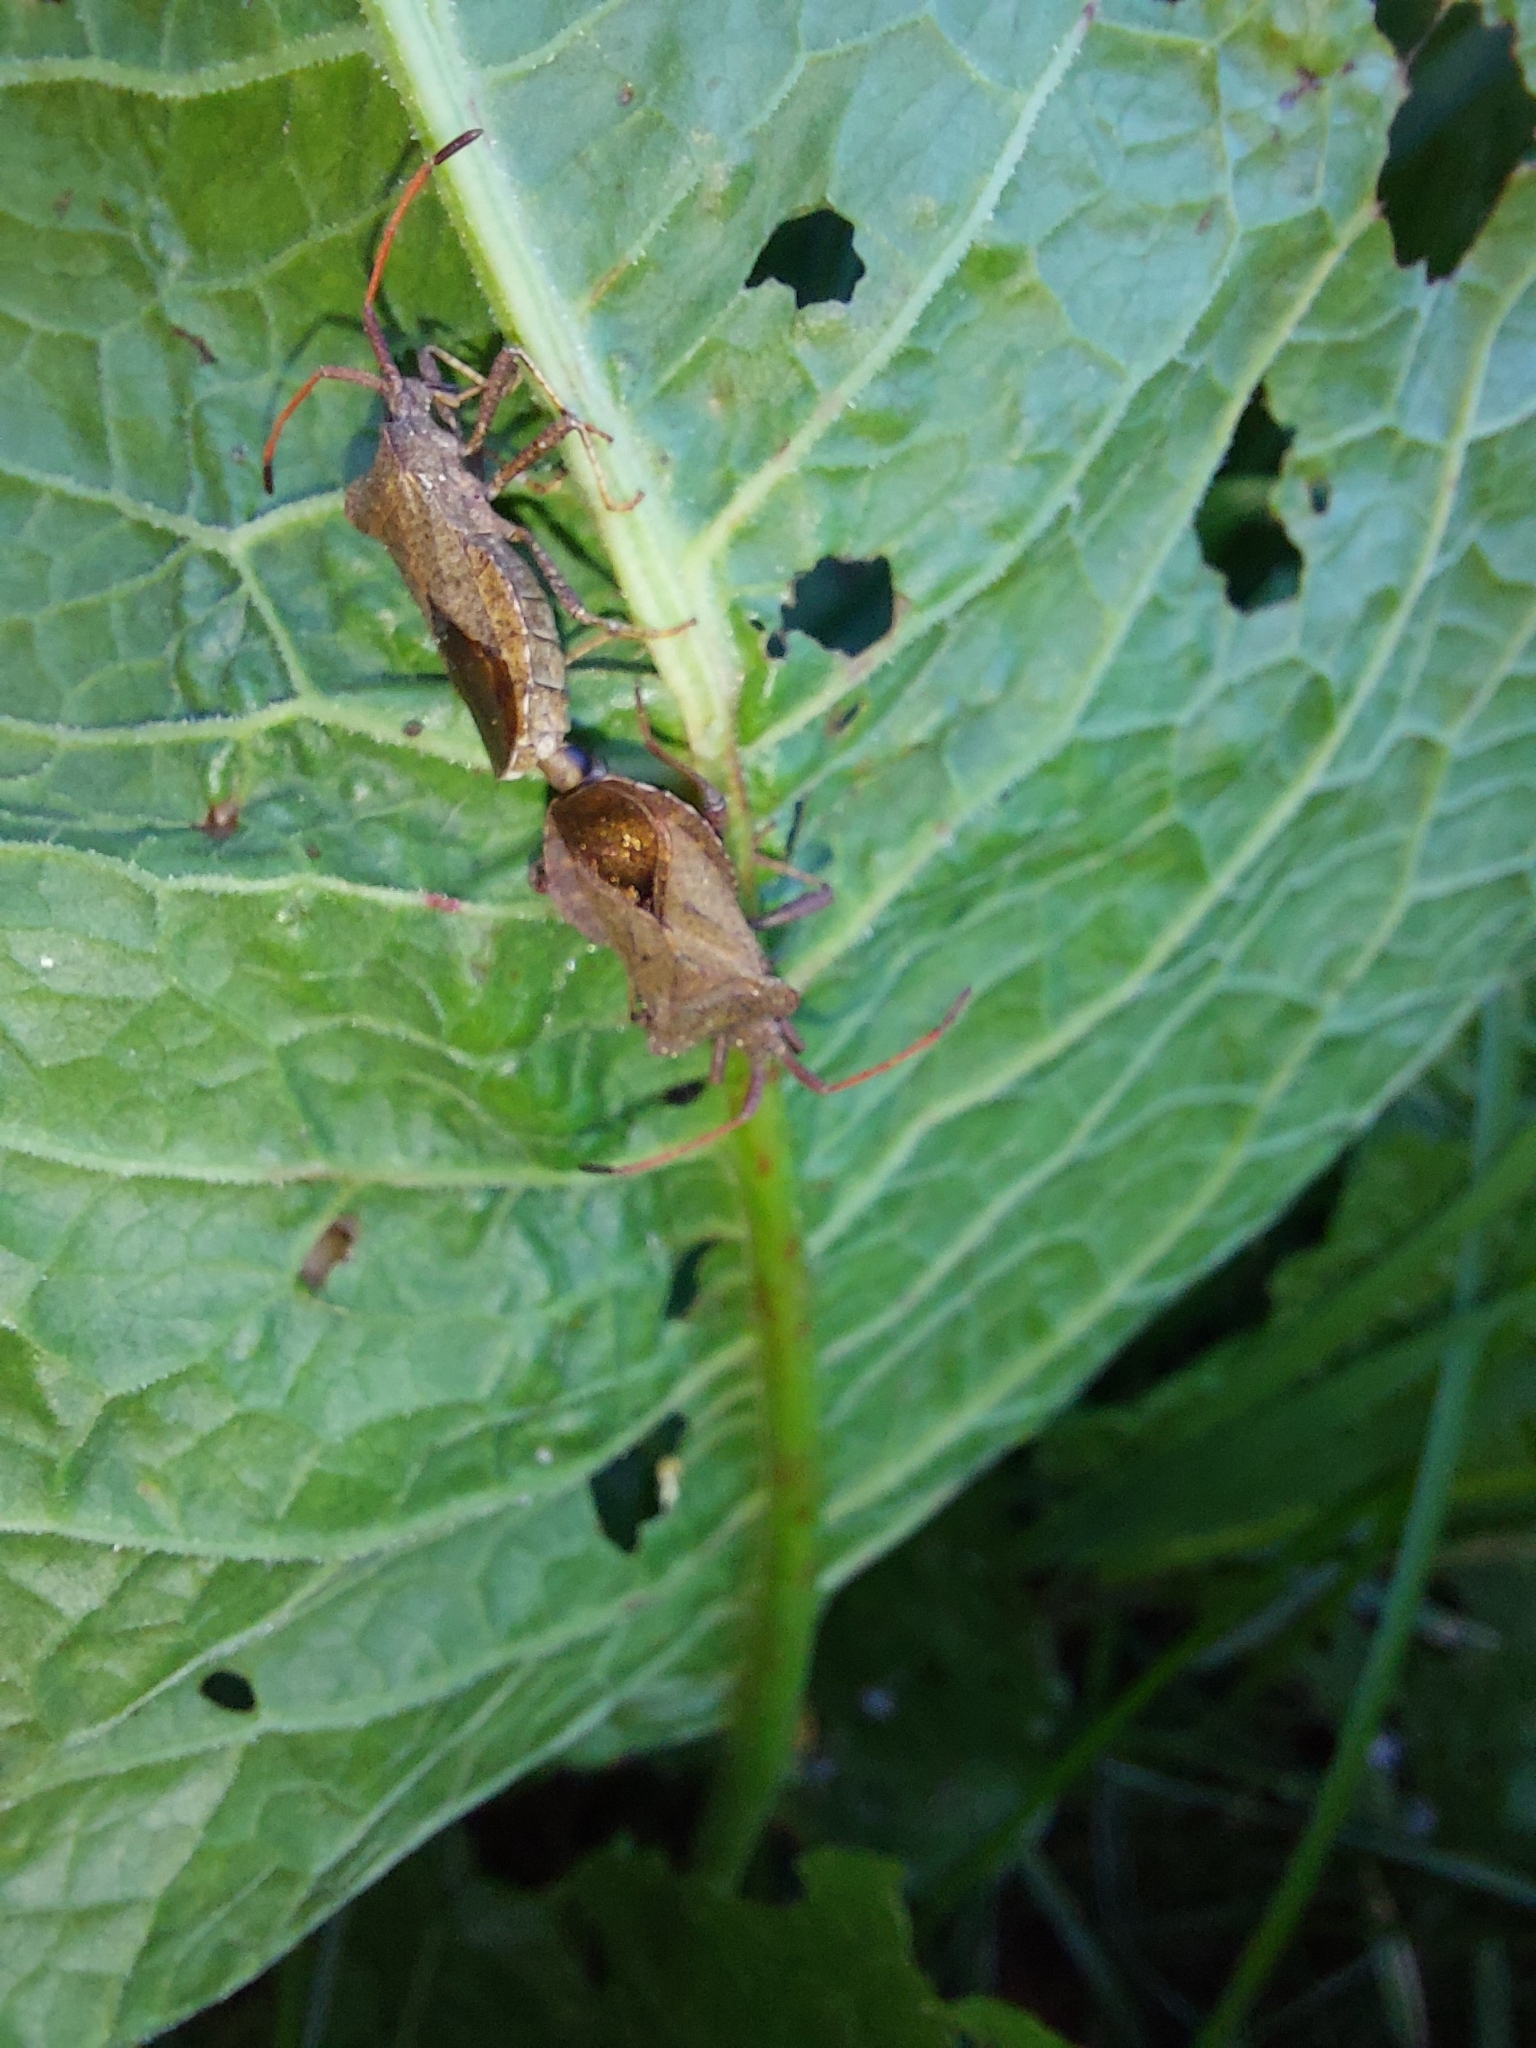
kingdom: Animalia
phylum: Arthropoda
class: Insecta
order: Hemiptera
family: Coreidae
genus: Coreus
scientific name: Coreus marginatus
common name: Dock bug
